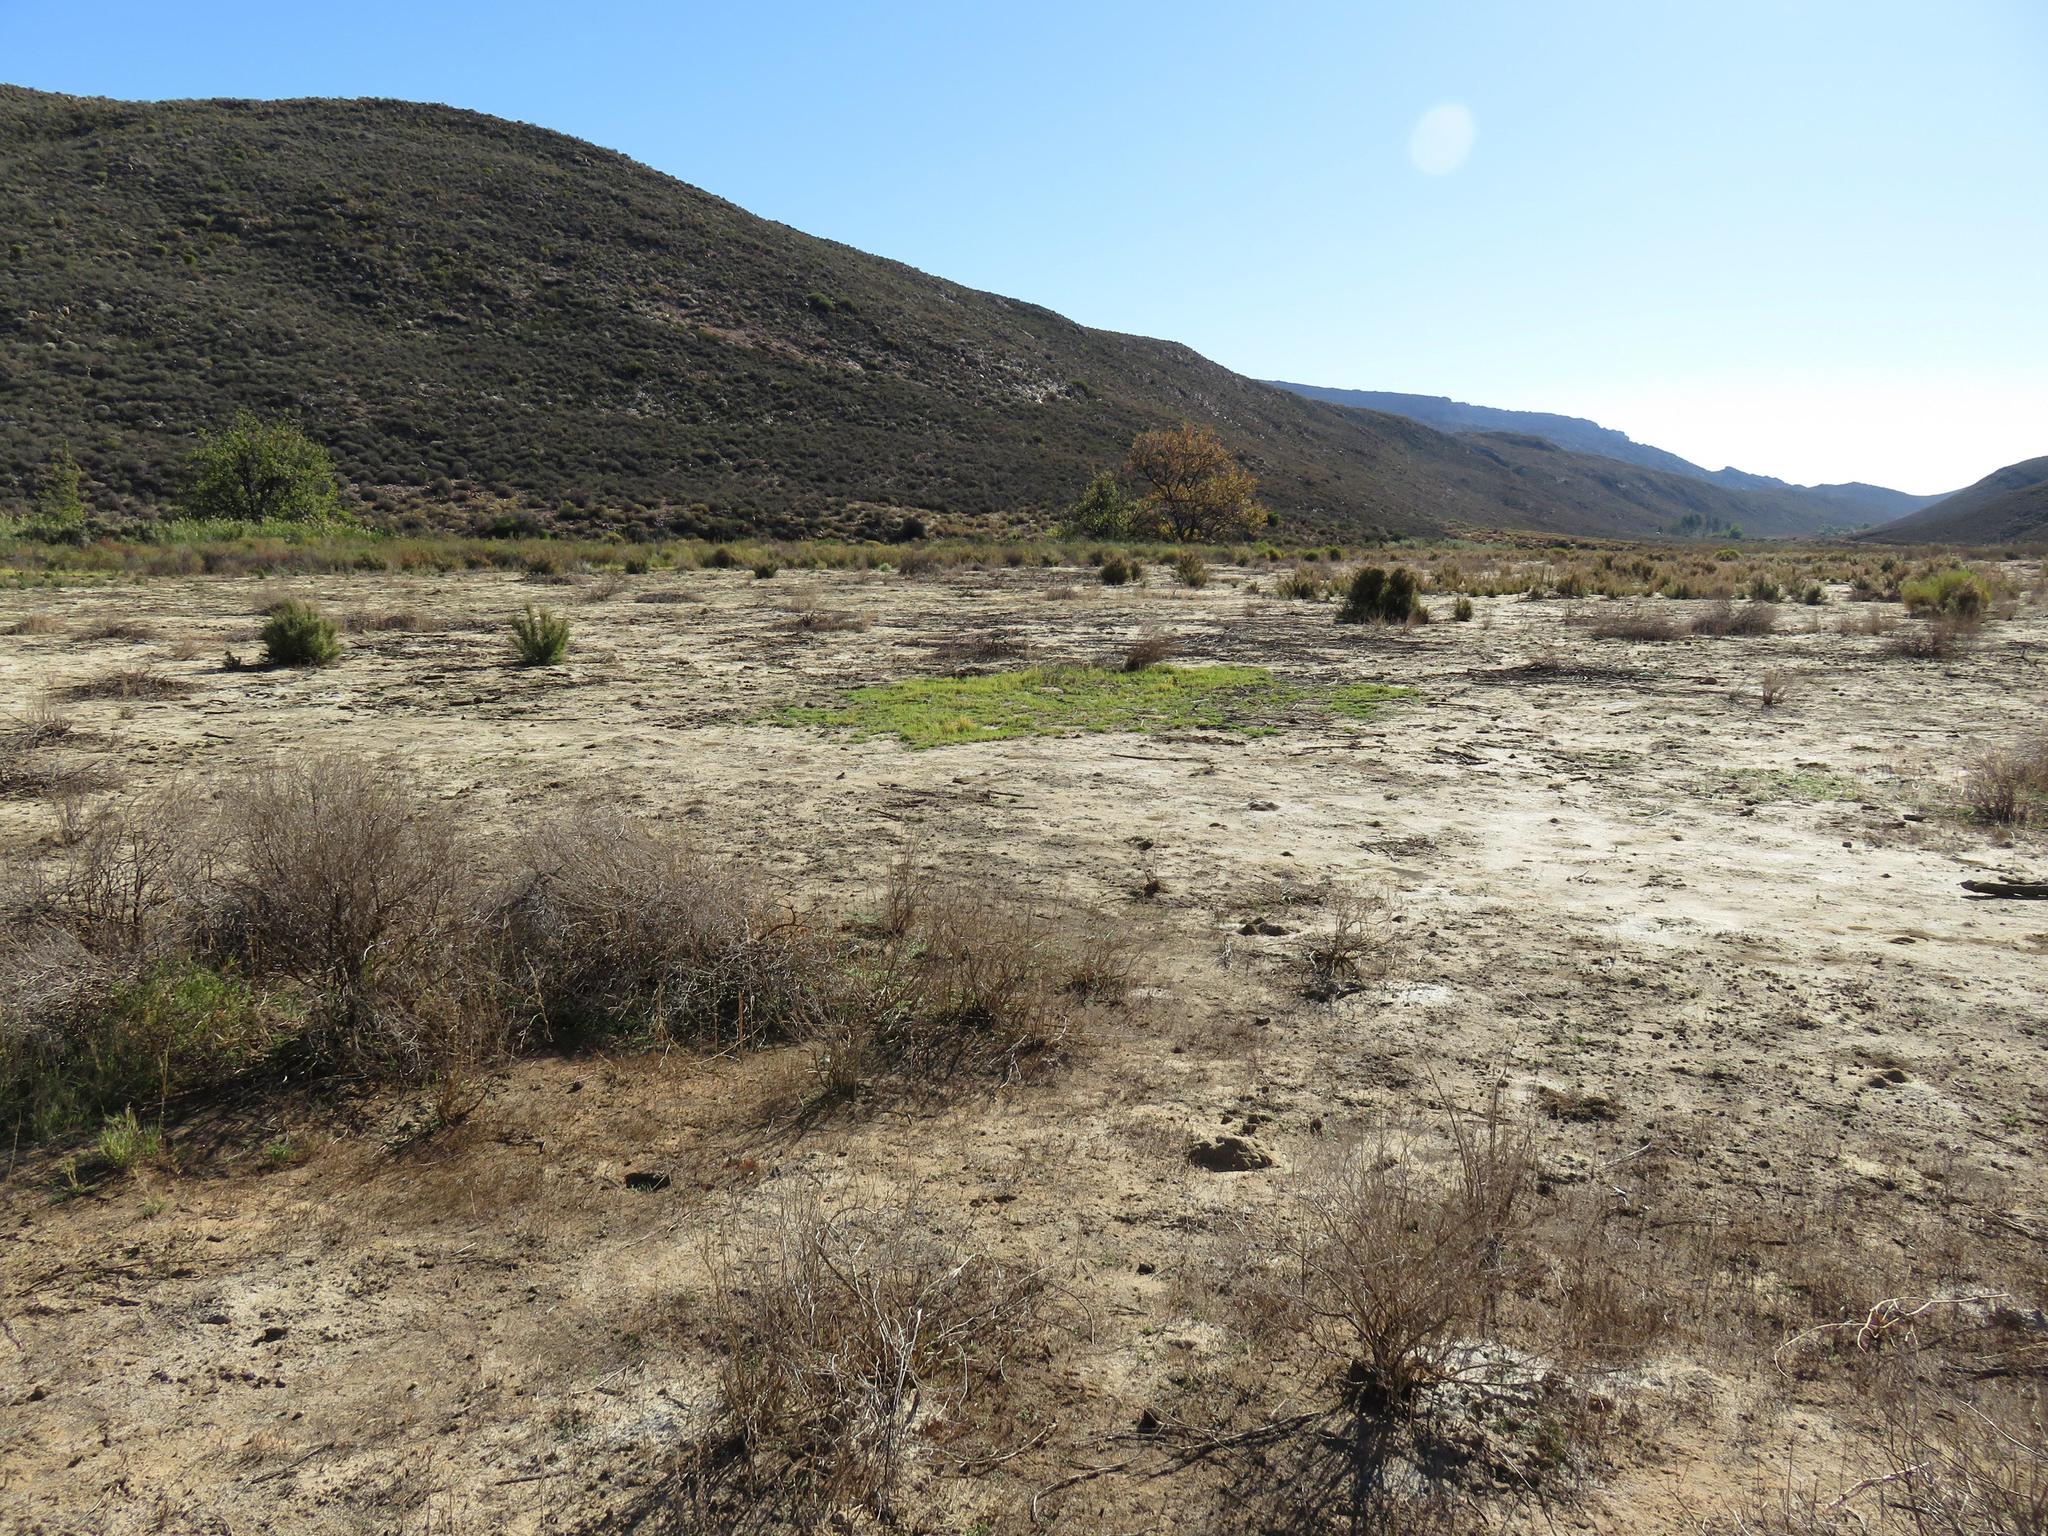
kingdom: Plantae
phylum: Tracheophyta
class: Liliopsida
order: Poales
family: Poaceae
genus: Cynodon
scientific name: Cynodon dactylon
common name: Bermuda grass
